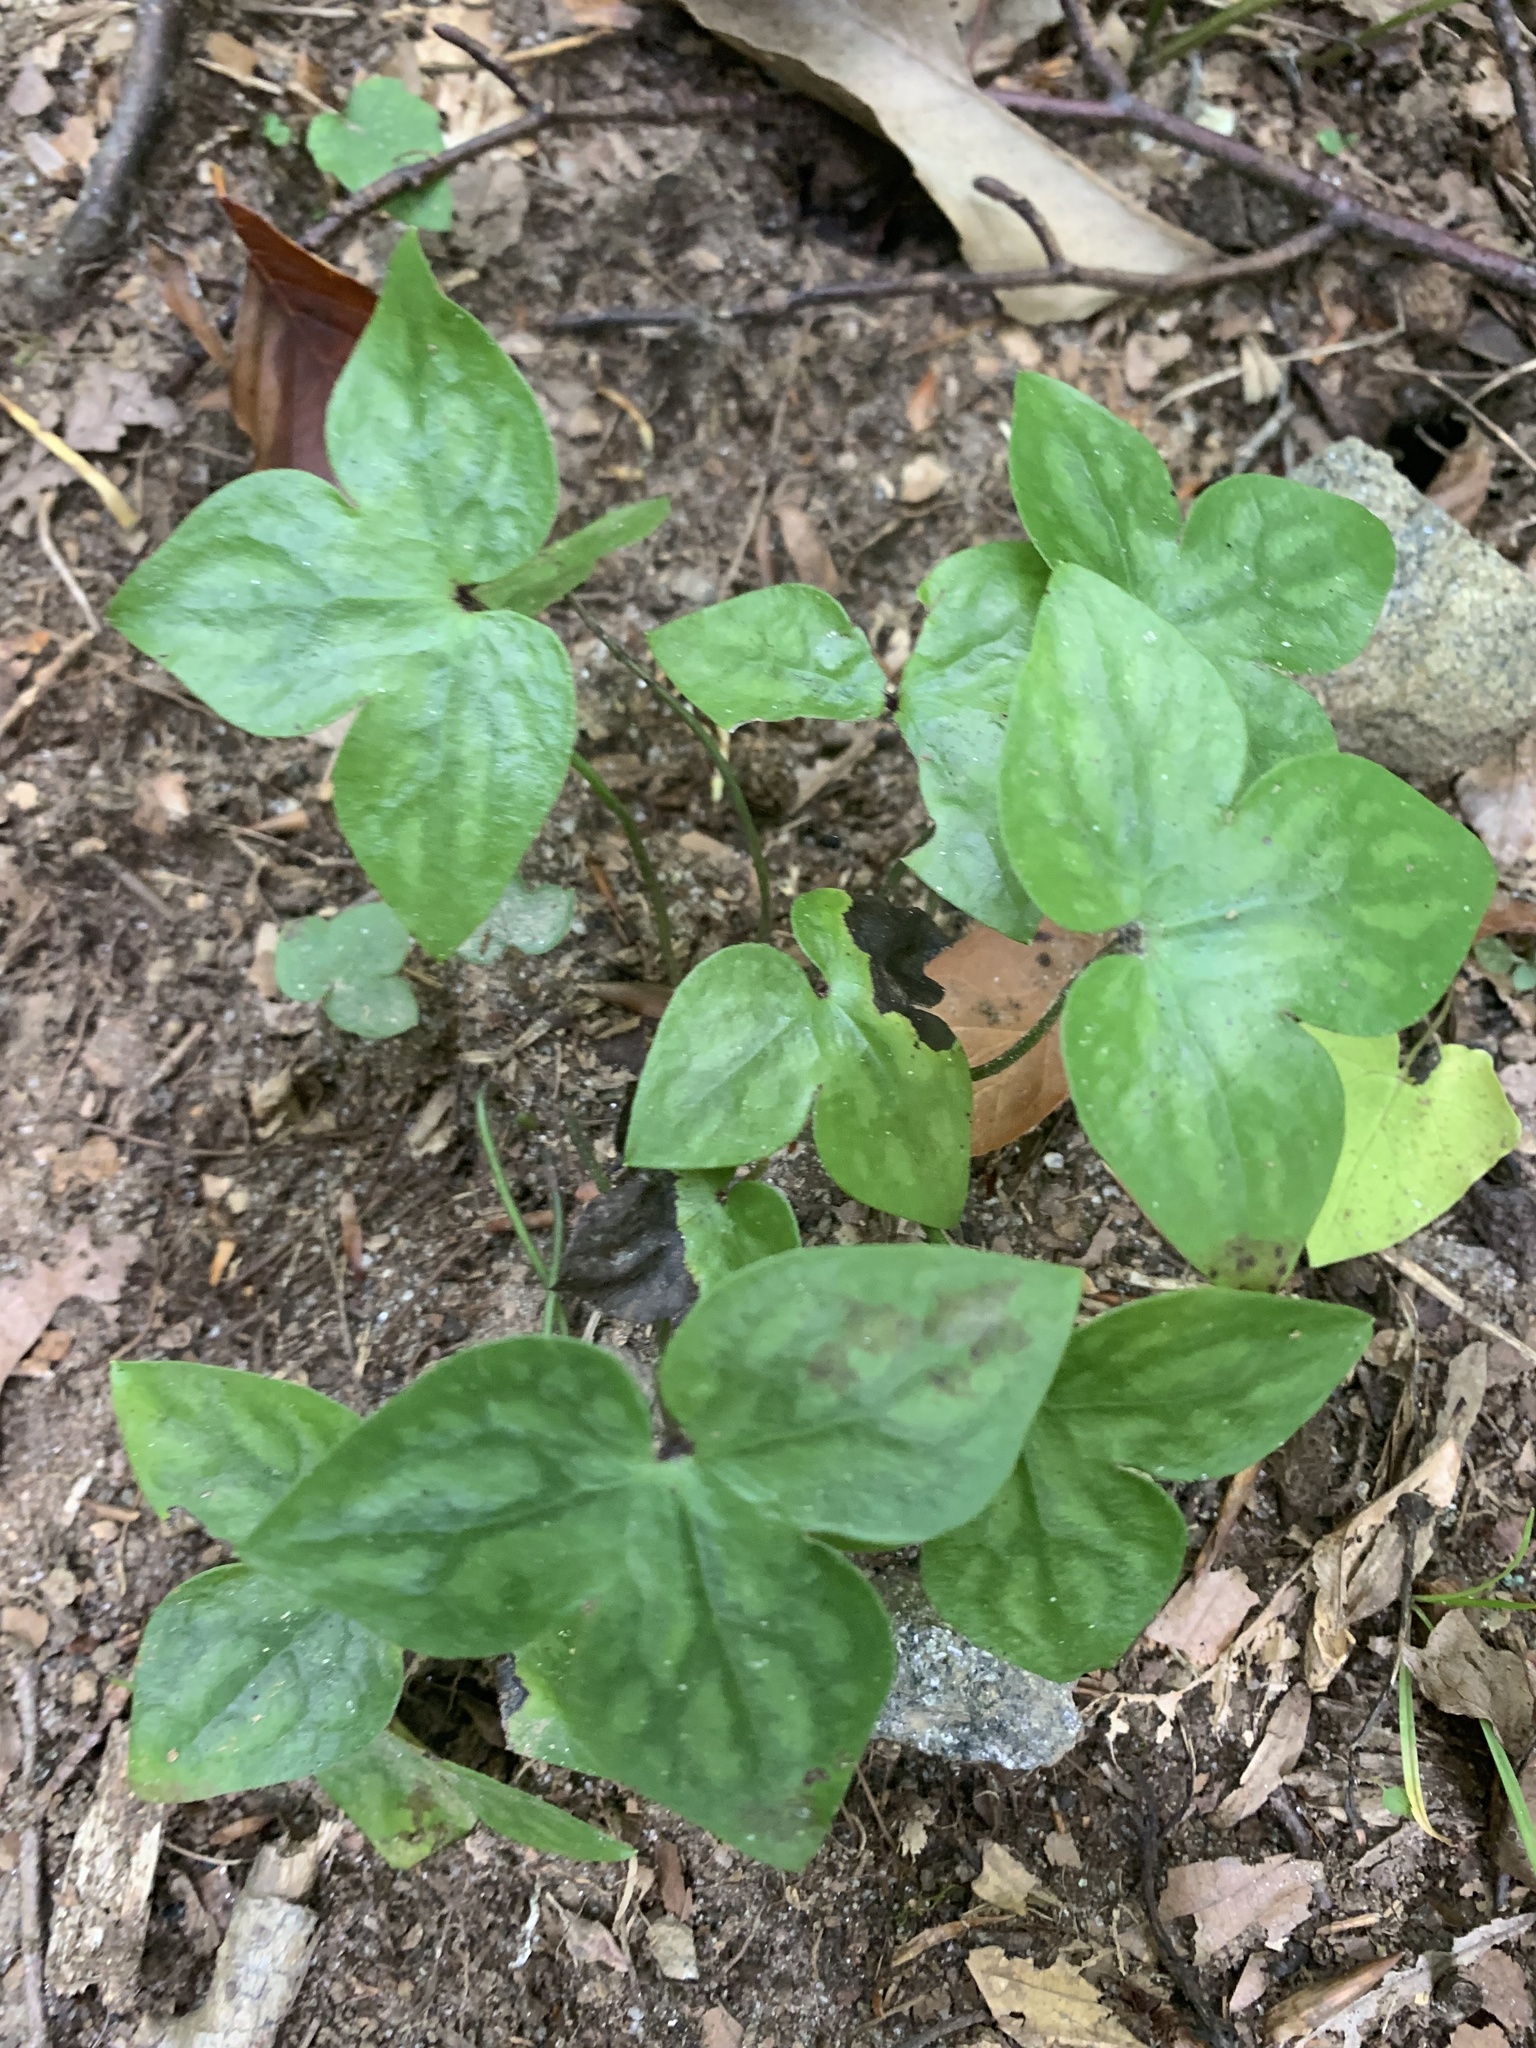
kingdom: Plantae
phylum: Tracheophyta
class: Magnoliopsida
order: Ranunculales
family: Ranunculaceae
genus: Hepatica
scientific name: Hepatica acutiloba
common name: Sharp-lobed hepatica
